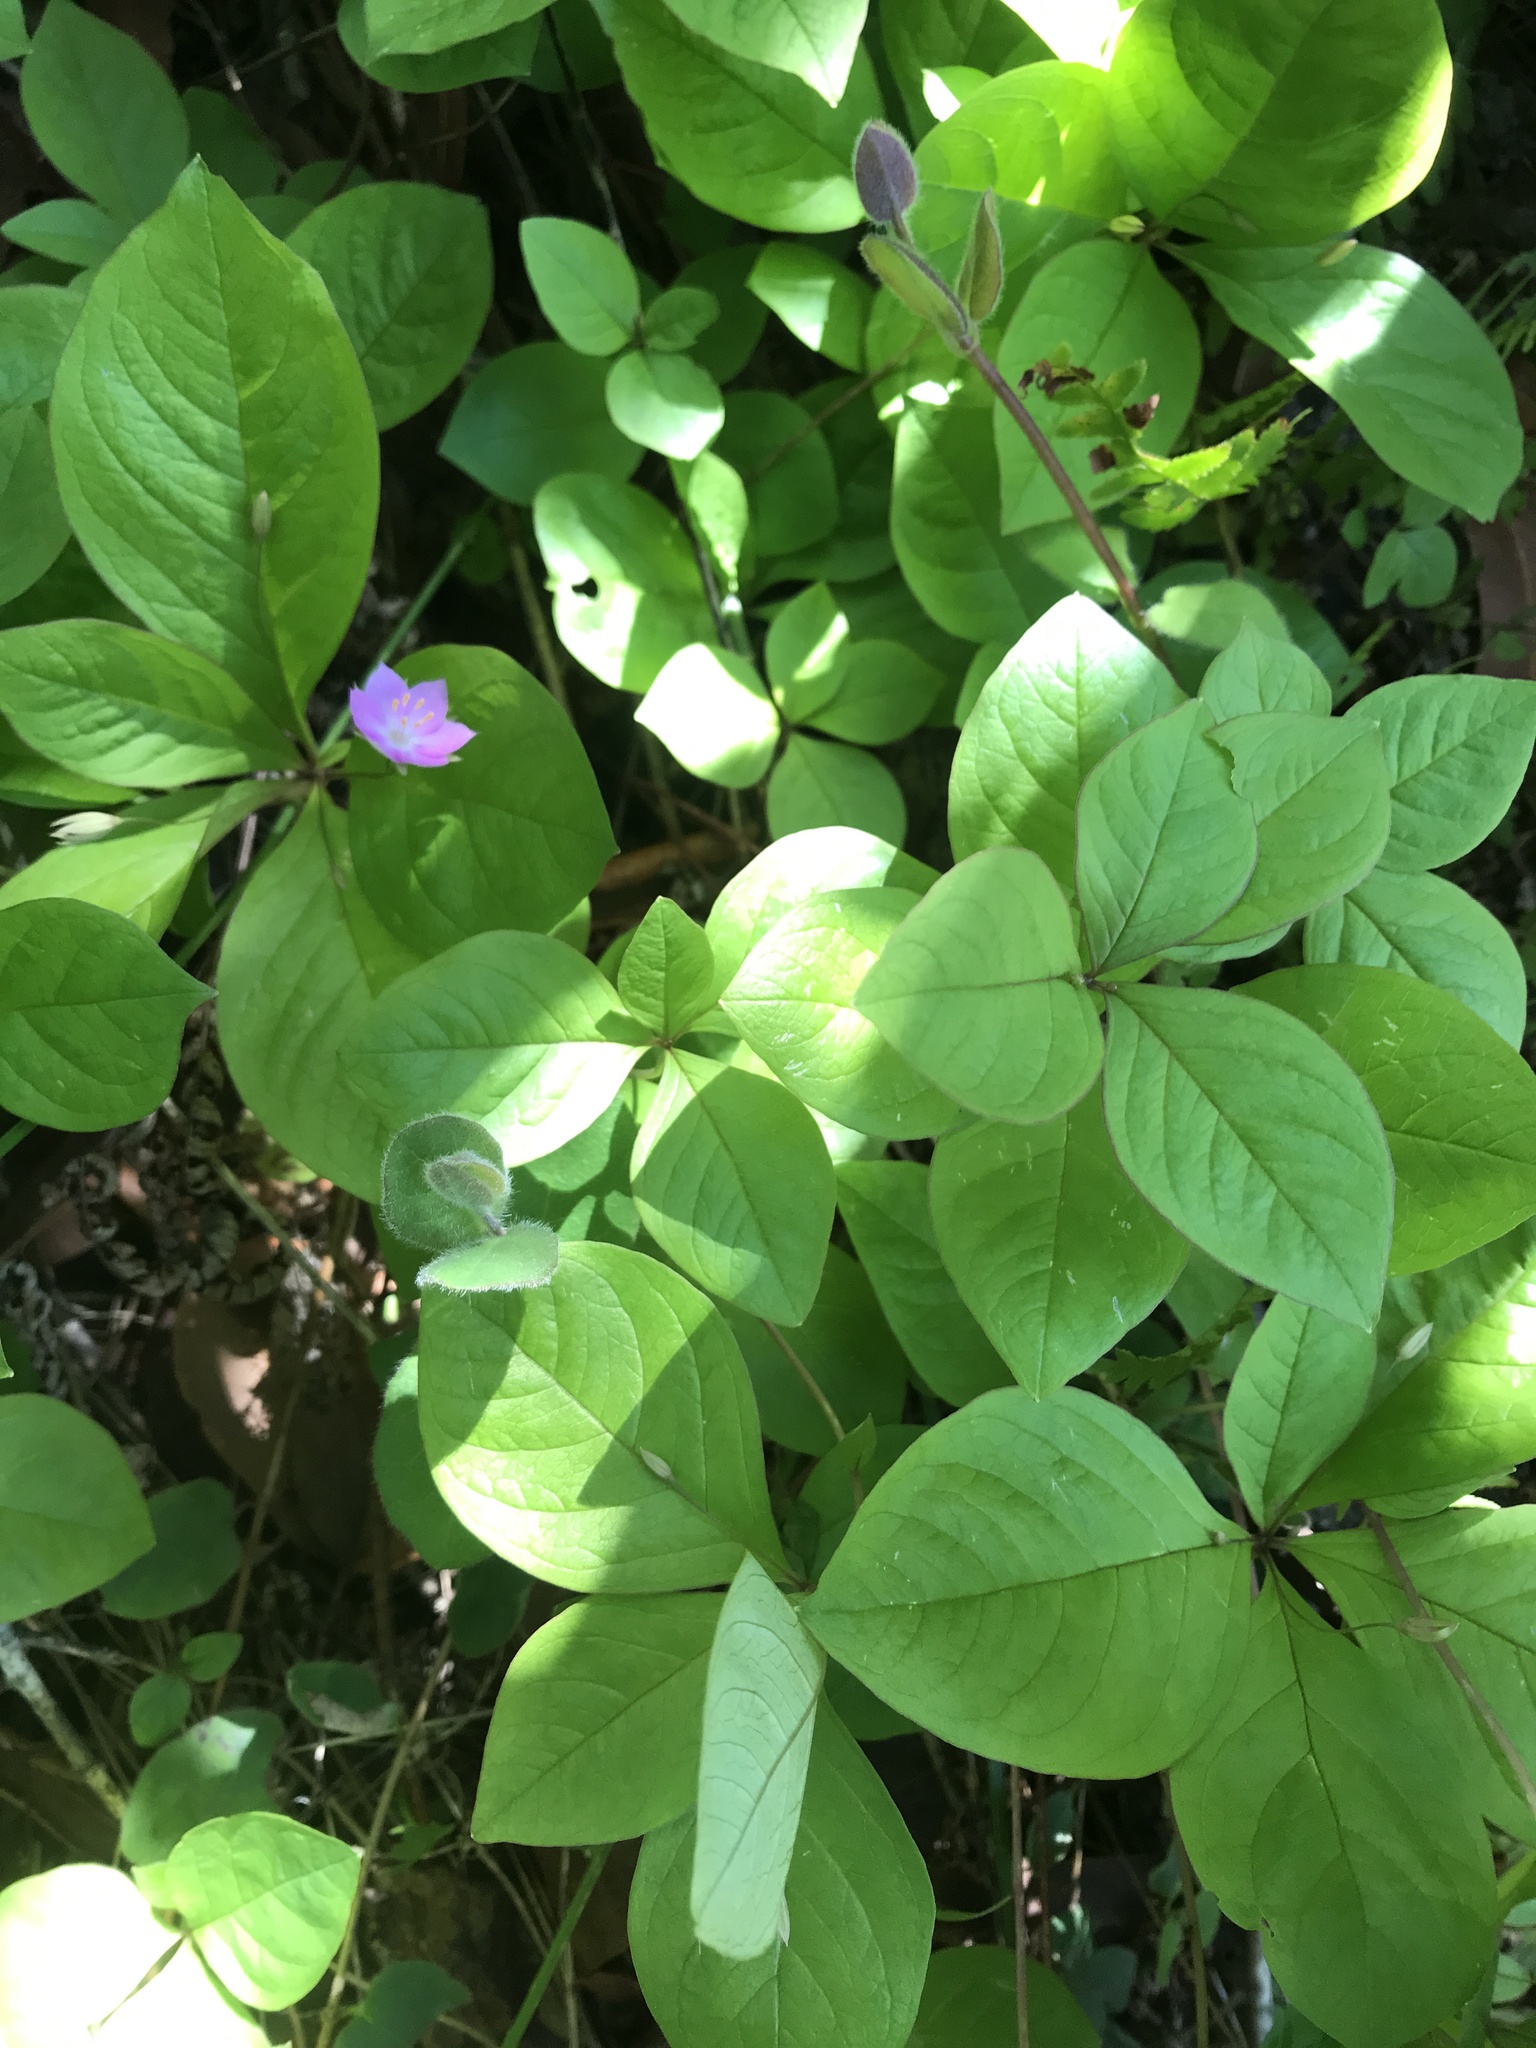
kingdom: Plantae
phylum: Tracheophyta
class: Magnoliopsida
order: Ericales
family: Primulaceae
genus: Lysimachia
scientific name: Lysimachia latifolia
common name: Pacific starflower
